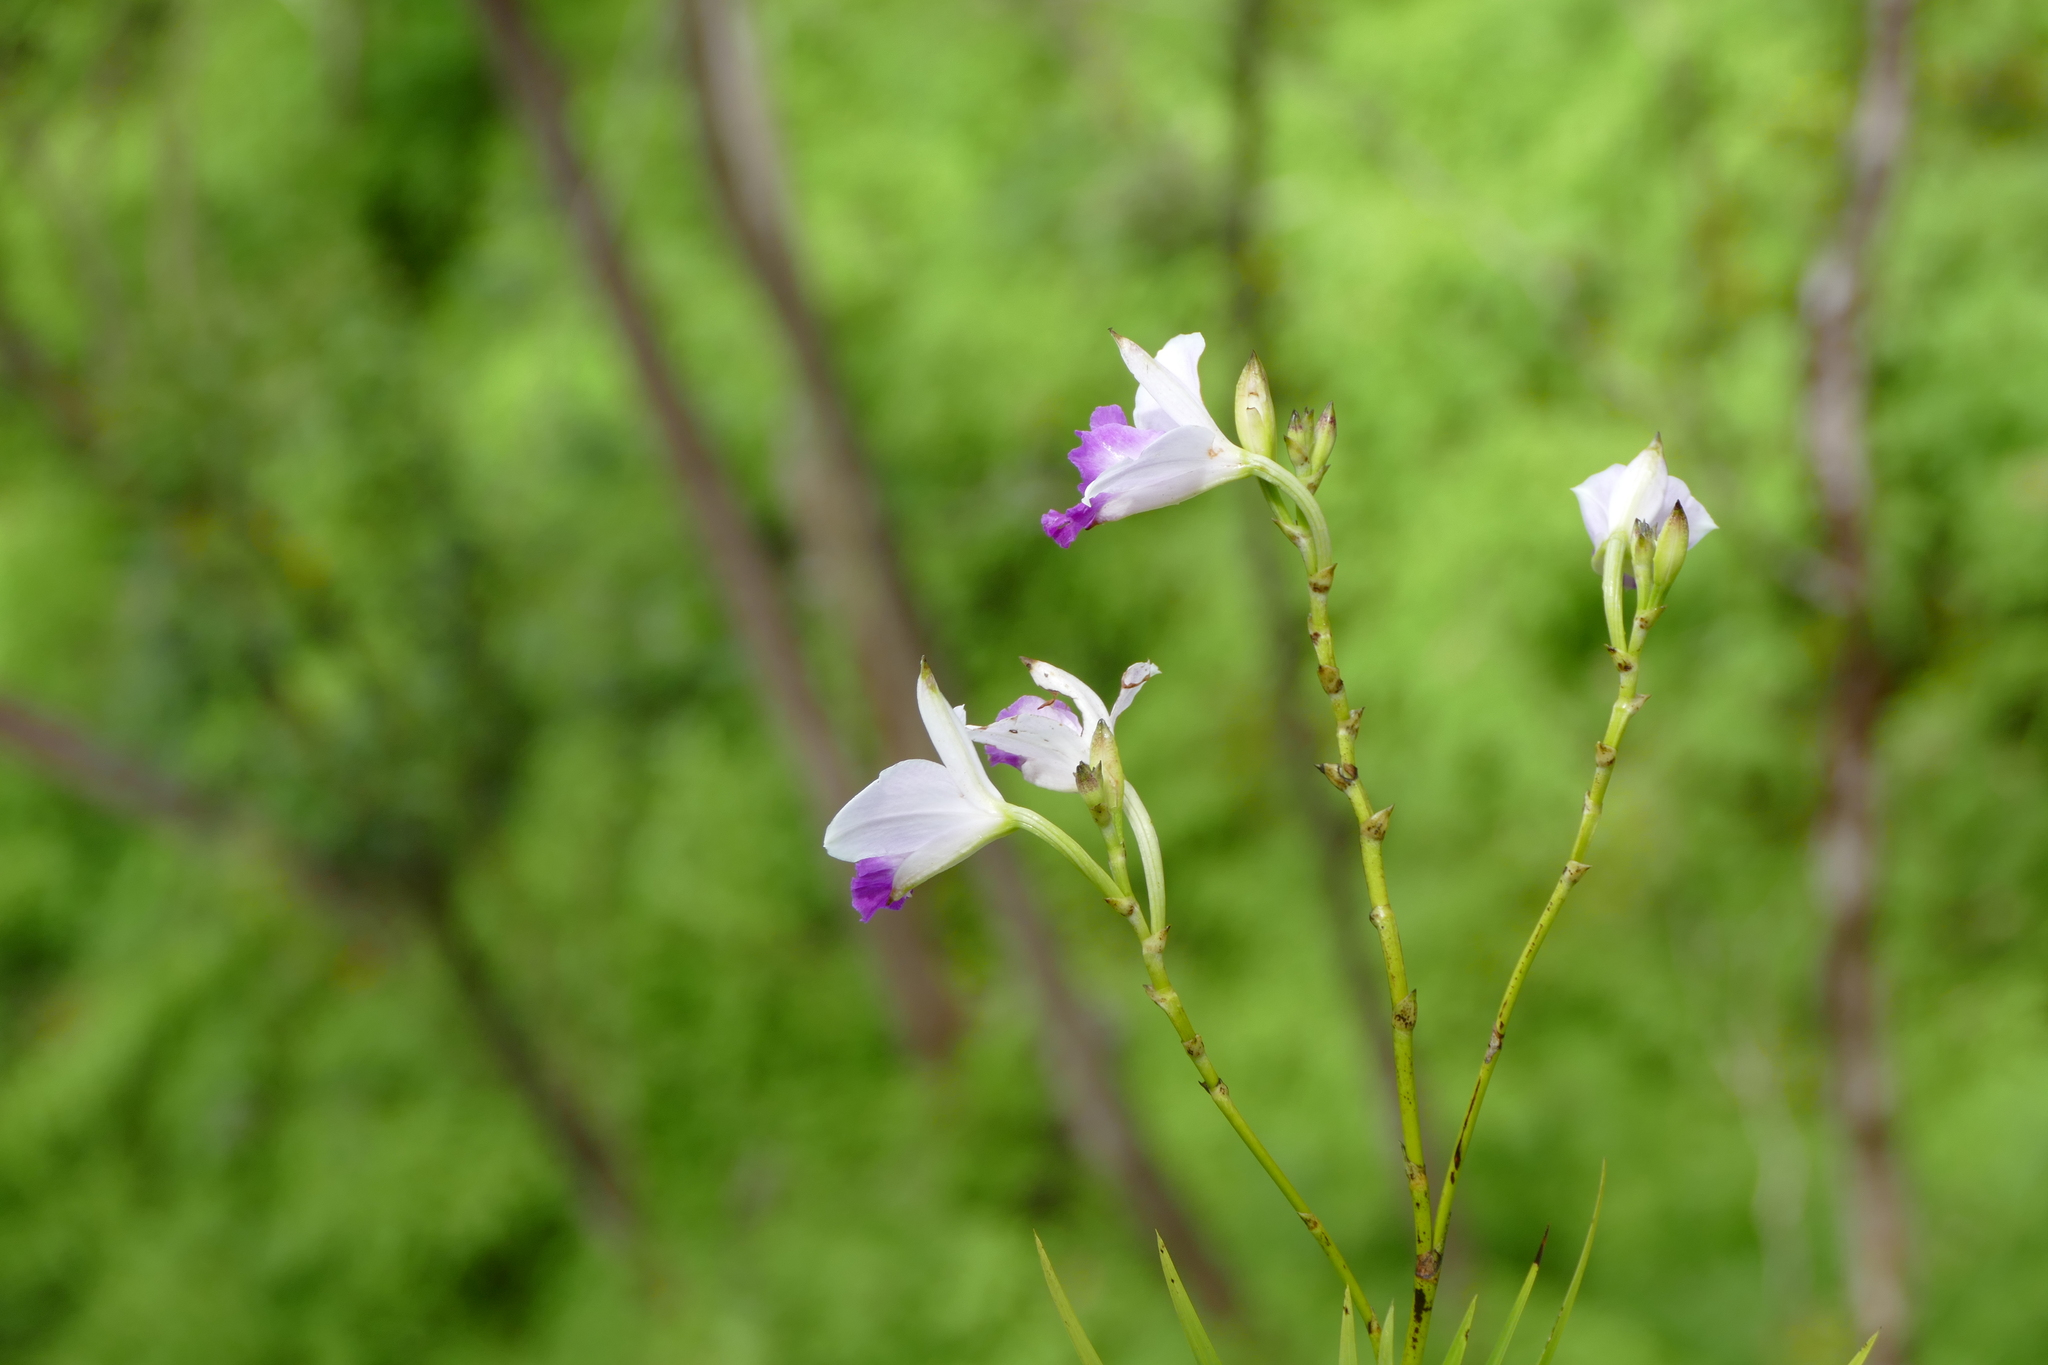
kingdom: Plantae
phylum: Tracheophyta
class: Liliopsida
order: Asparagales
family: Orchidaceae
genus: Arundina
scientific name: Arundina graminifolia
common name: Bamboo orchid
